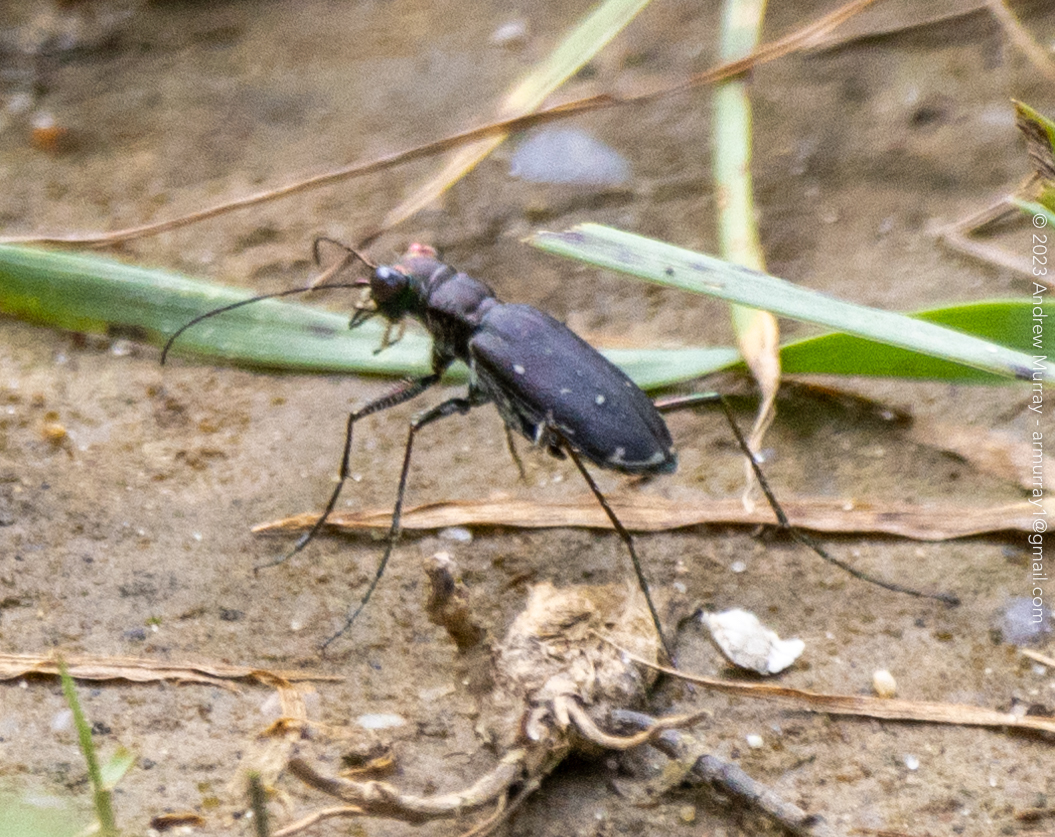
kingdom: Animalia
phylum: Arthropoda
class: Insecta
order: Coleoptera
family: Carabidae
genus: Cicindela
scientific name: Cicindela punctulata
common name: Punctured tiger beetle
